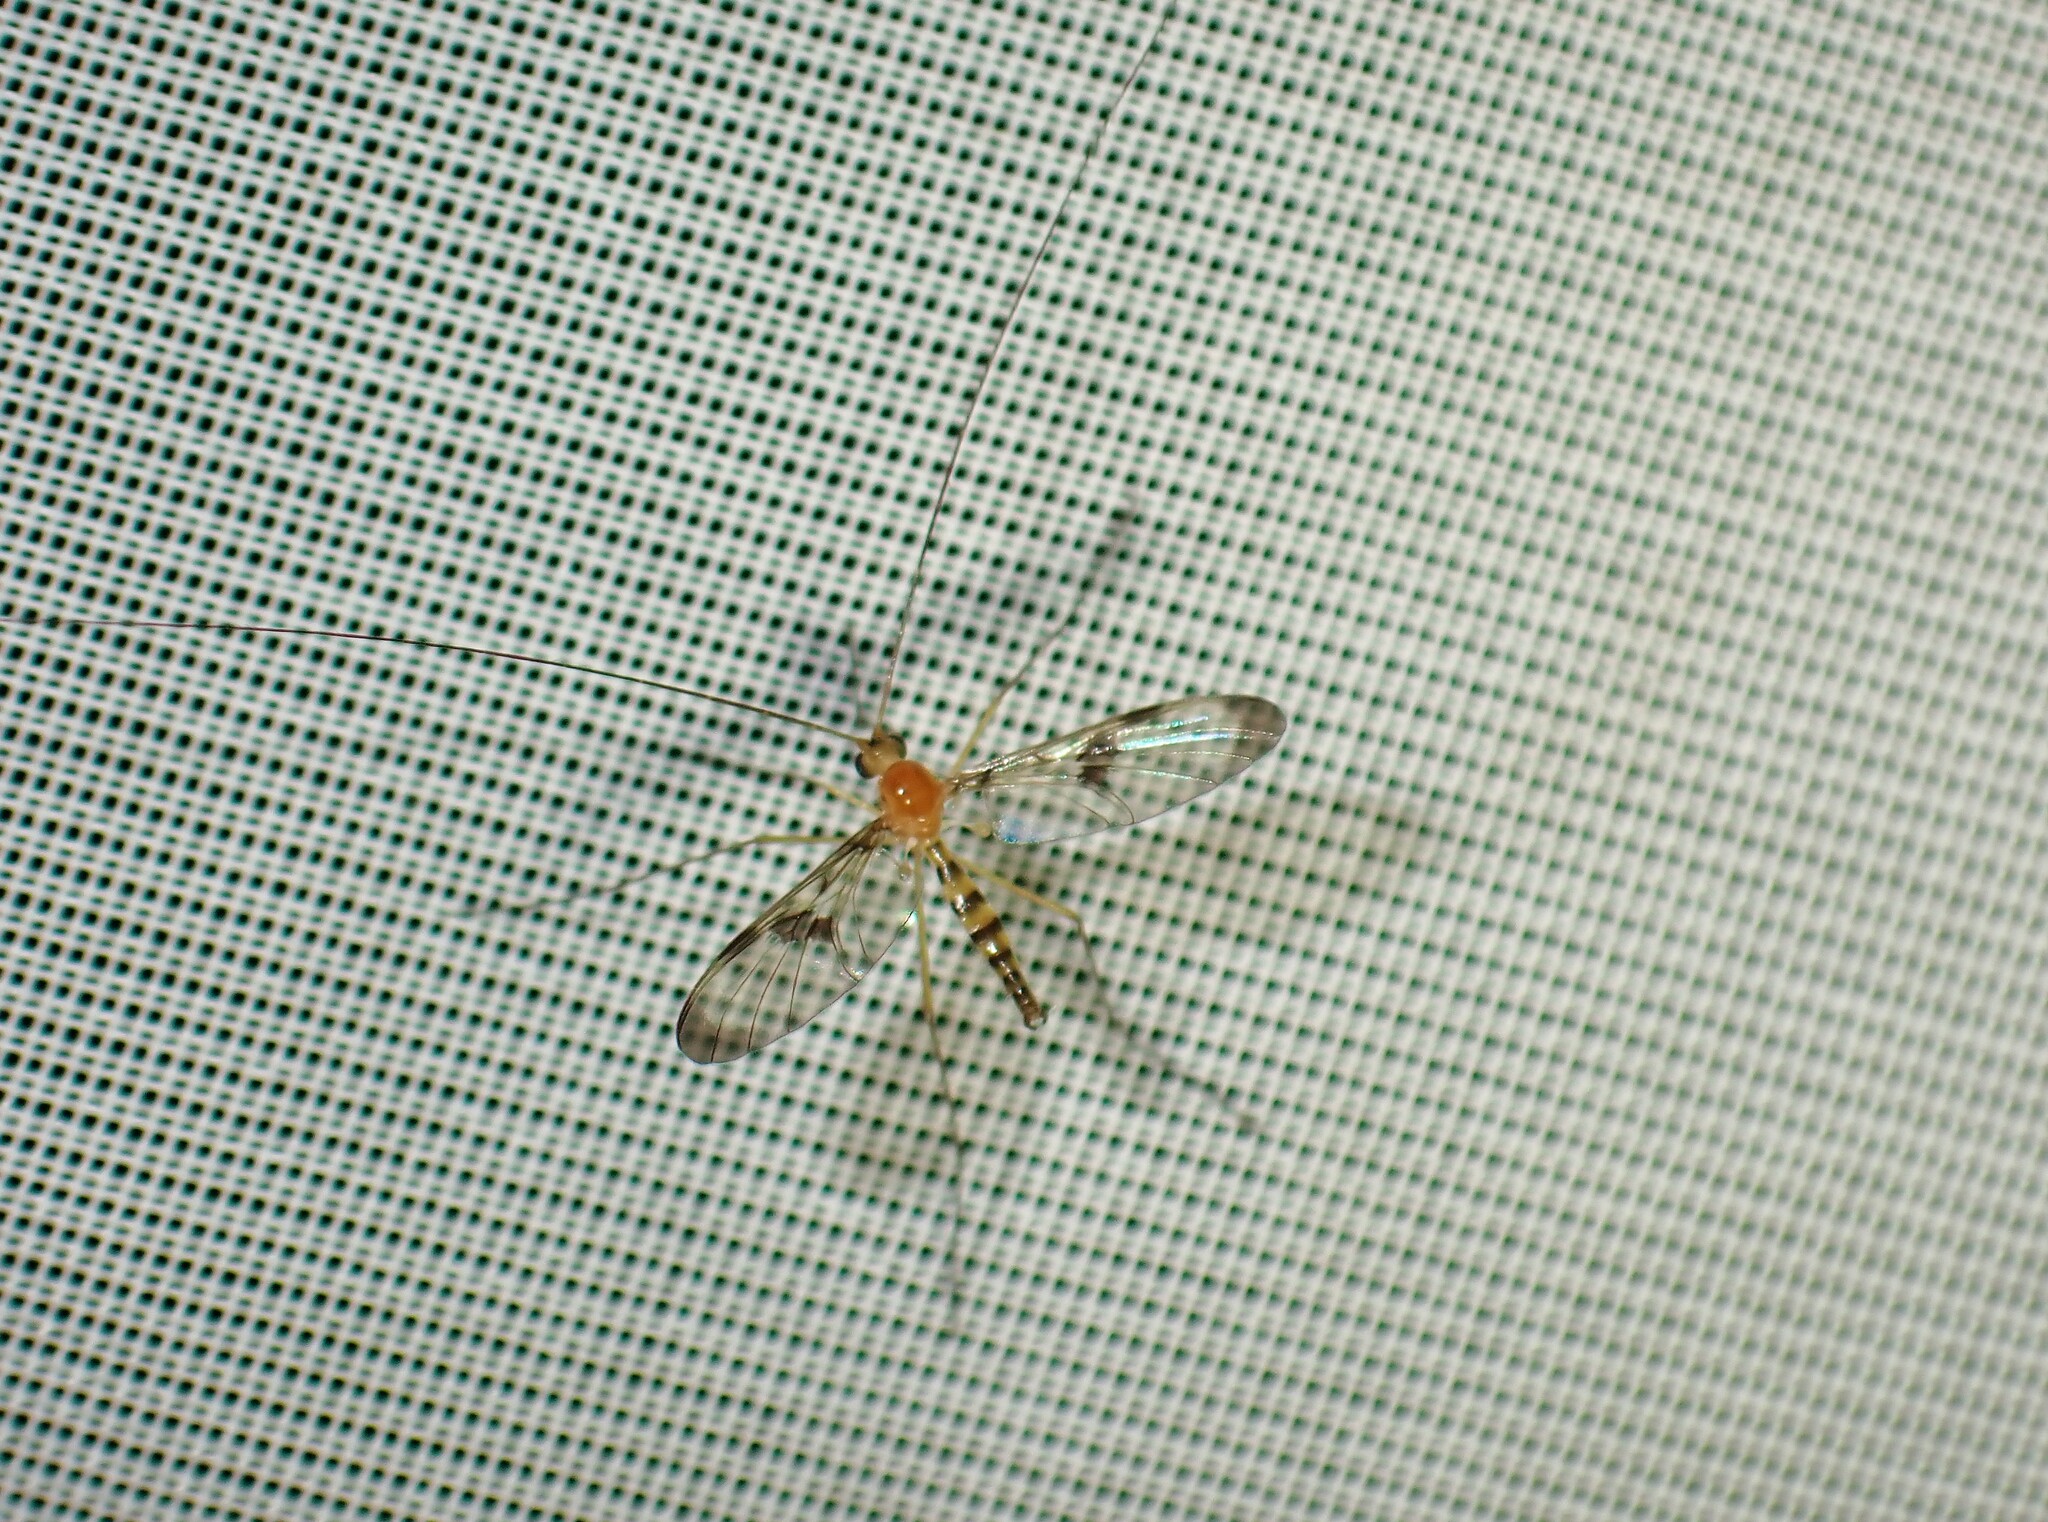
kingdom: Animalia
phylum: Arthropoda
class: Insecta
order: Diptera
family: Keroplatidae
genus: Macrocera
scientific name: Macrocera clara
